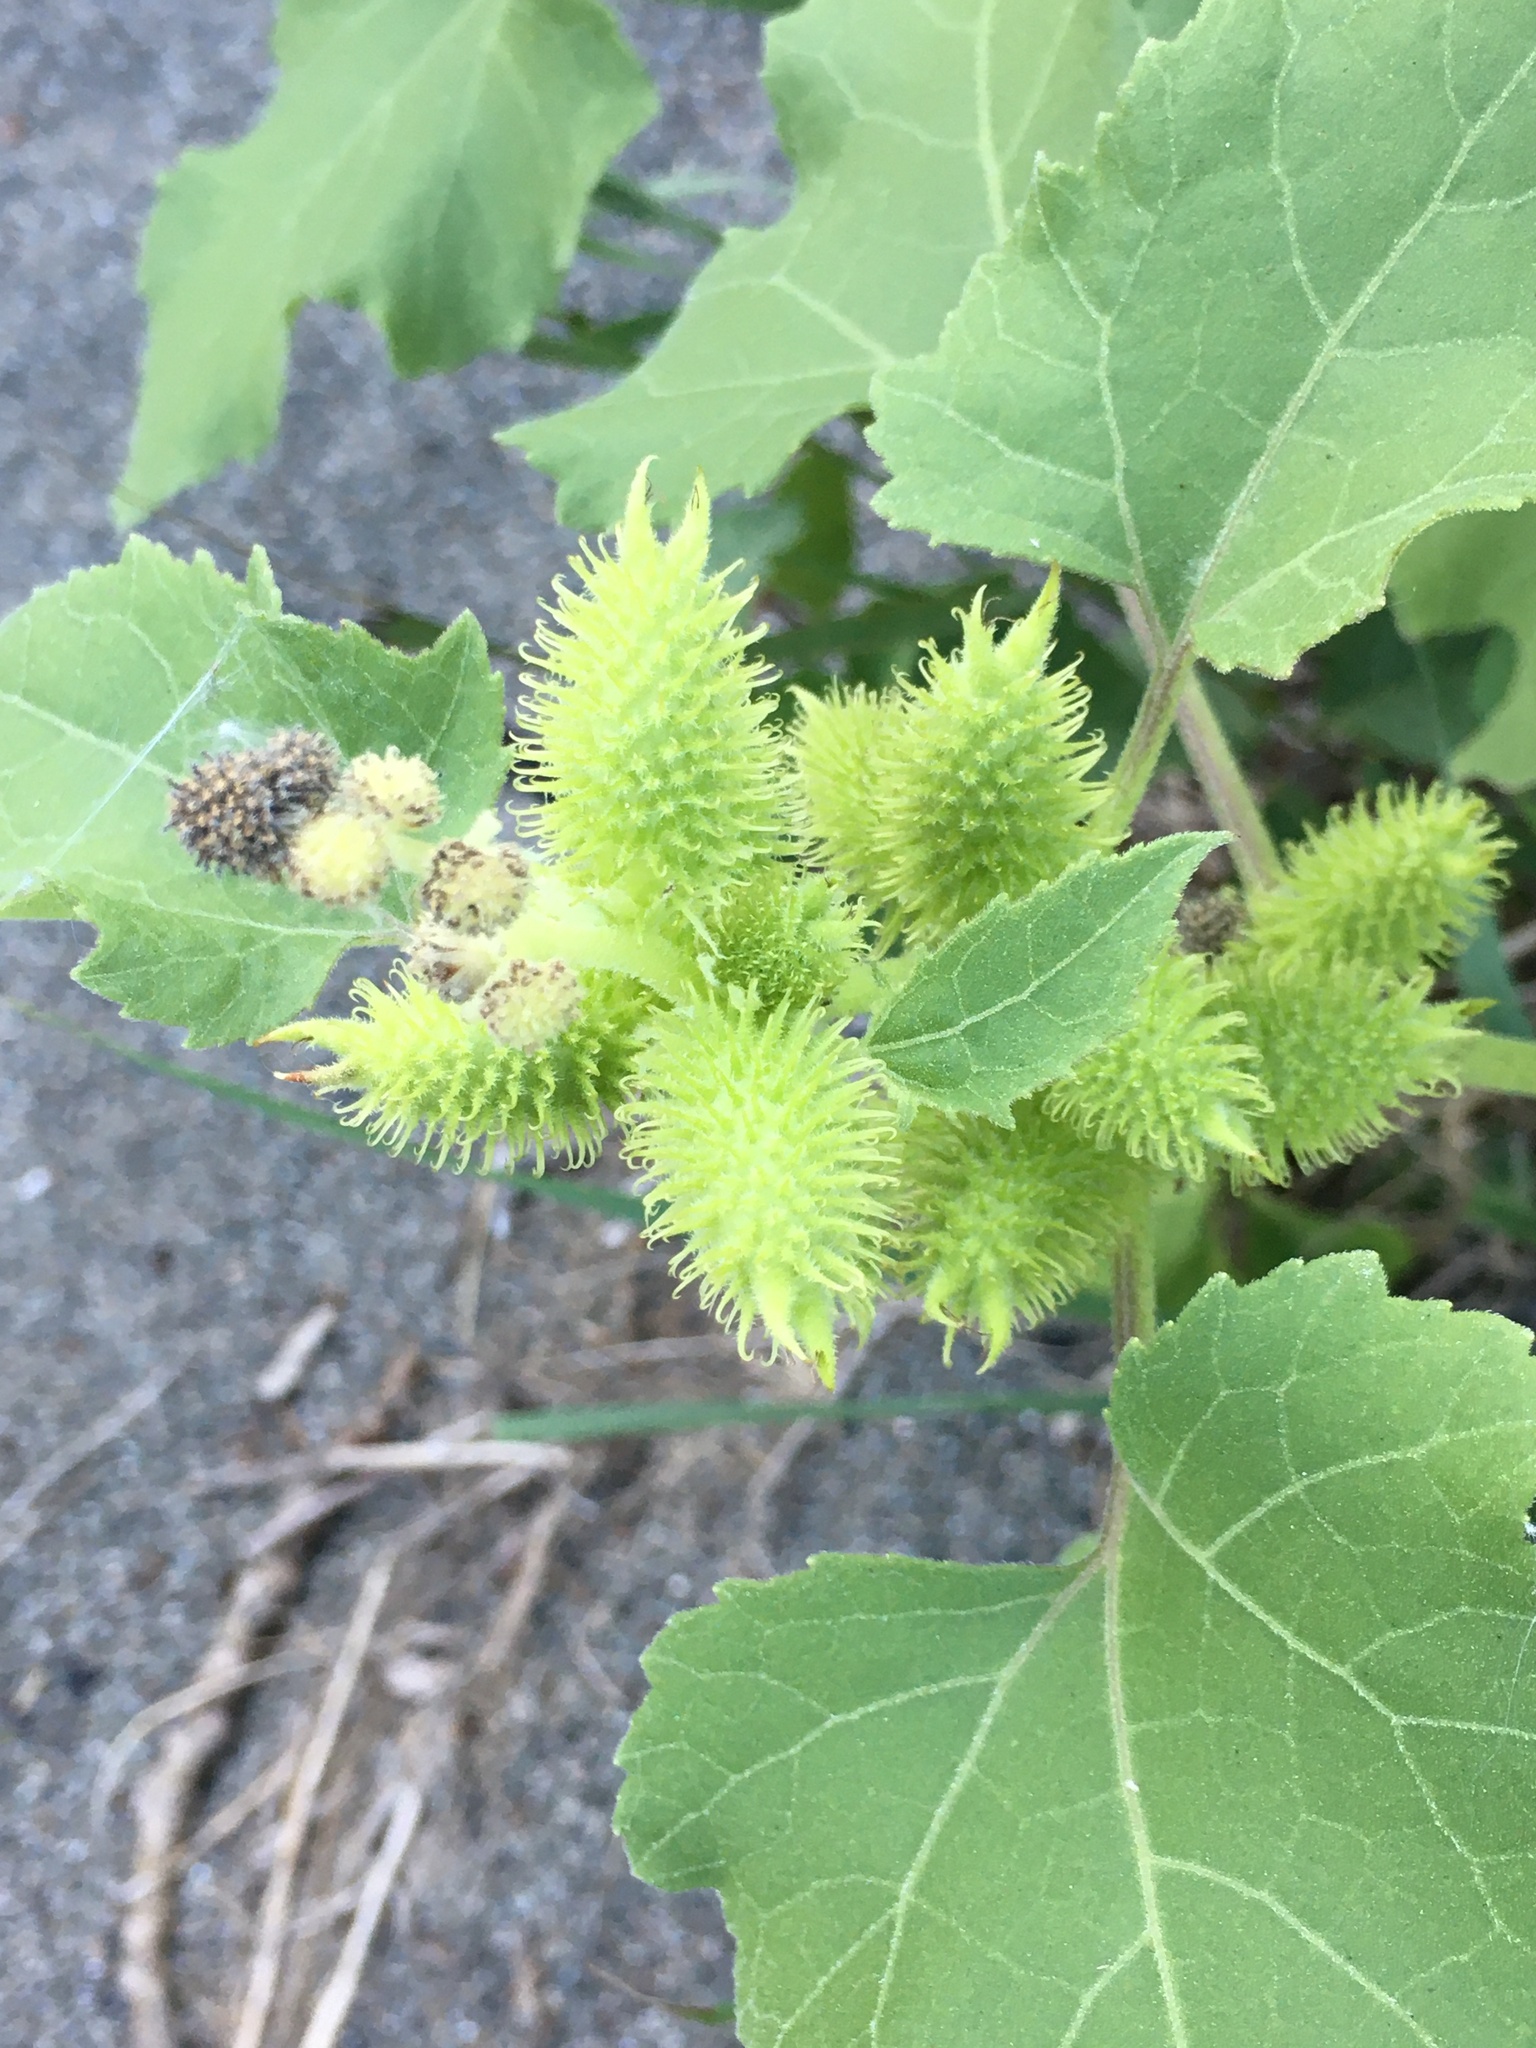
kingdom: Plantae
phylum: Tracheophyta
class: Magnoliopsida
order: Asterales
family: Asteraceae
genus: Xanthium
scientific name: Xanthium strumarium
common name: Rough cocklebur
